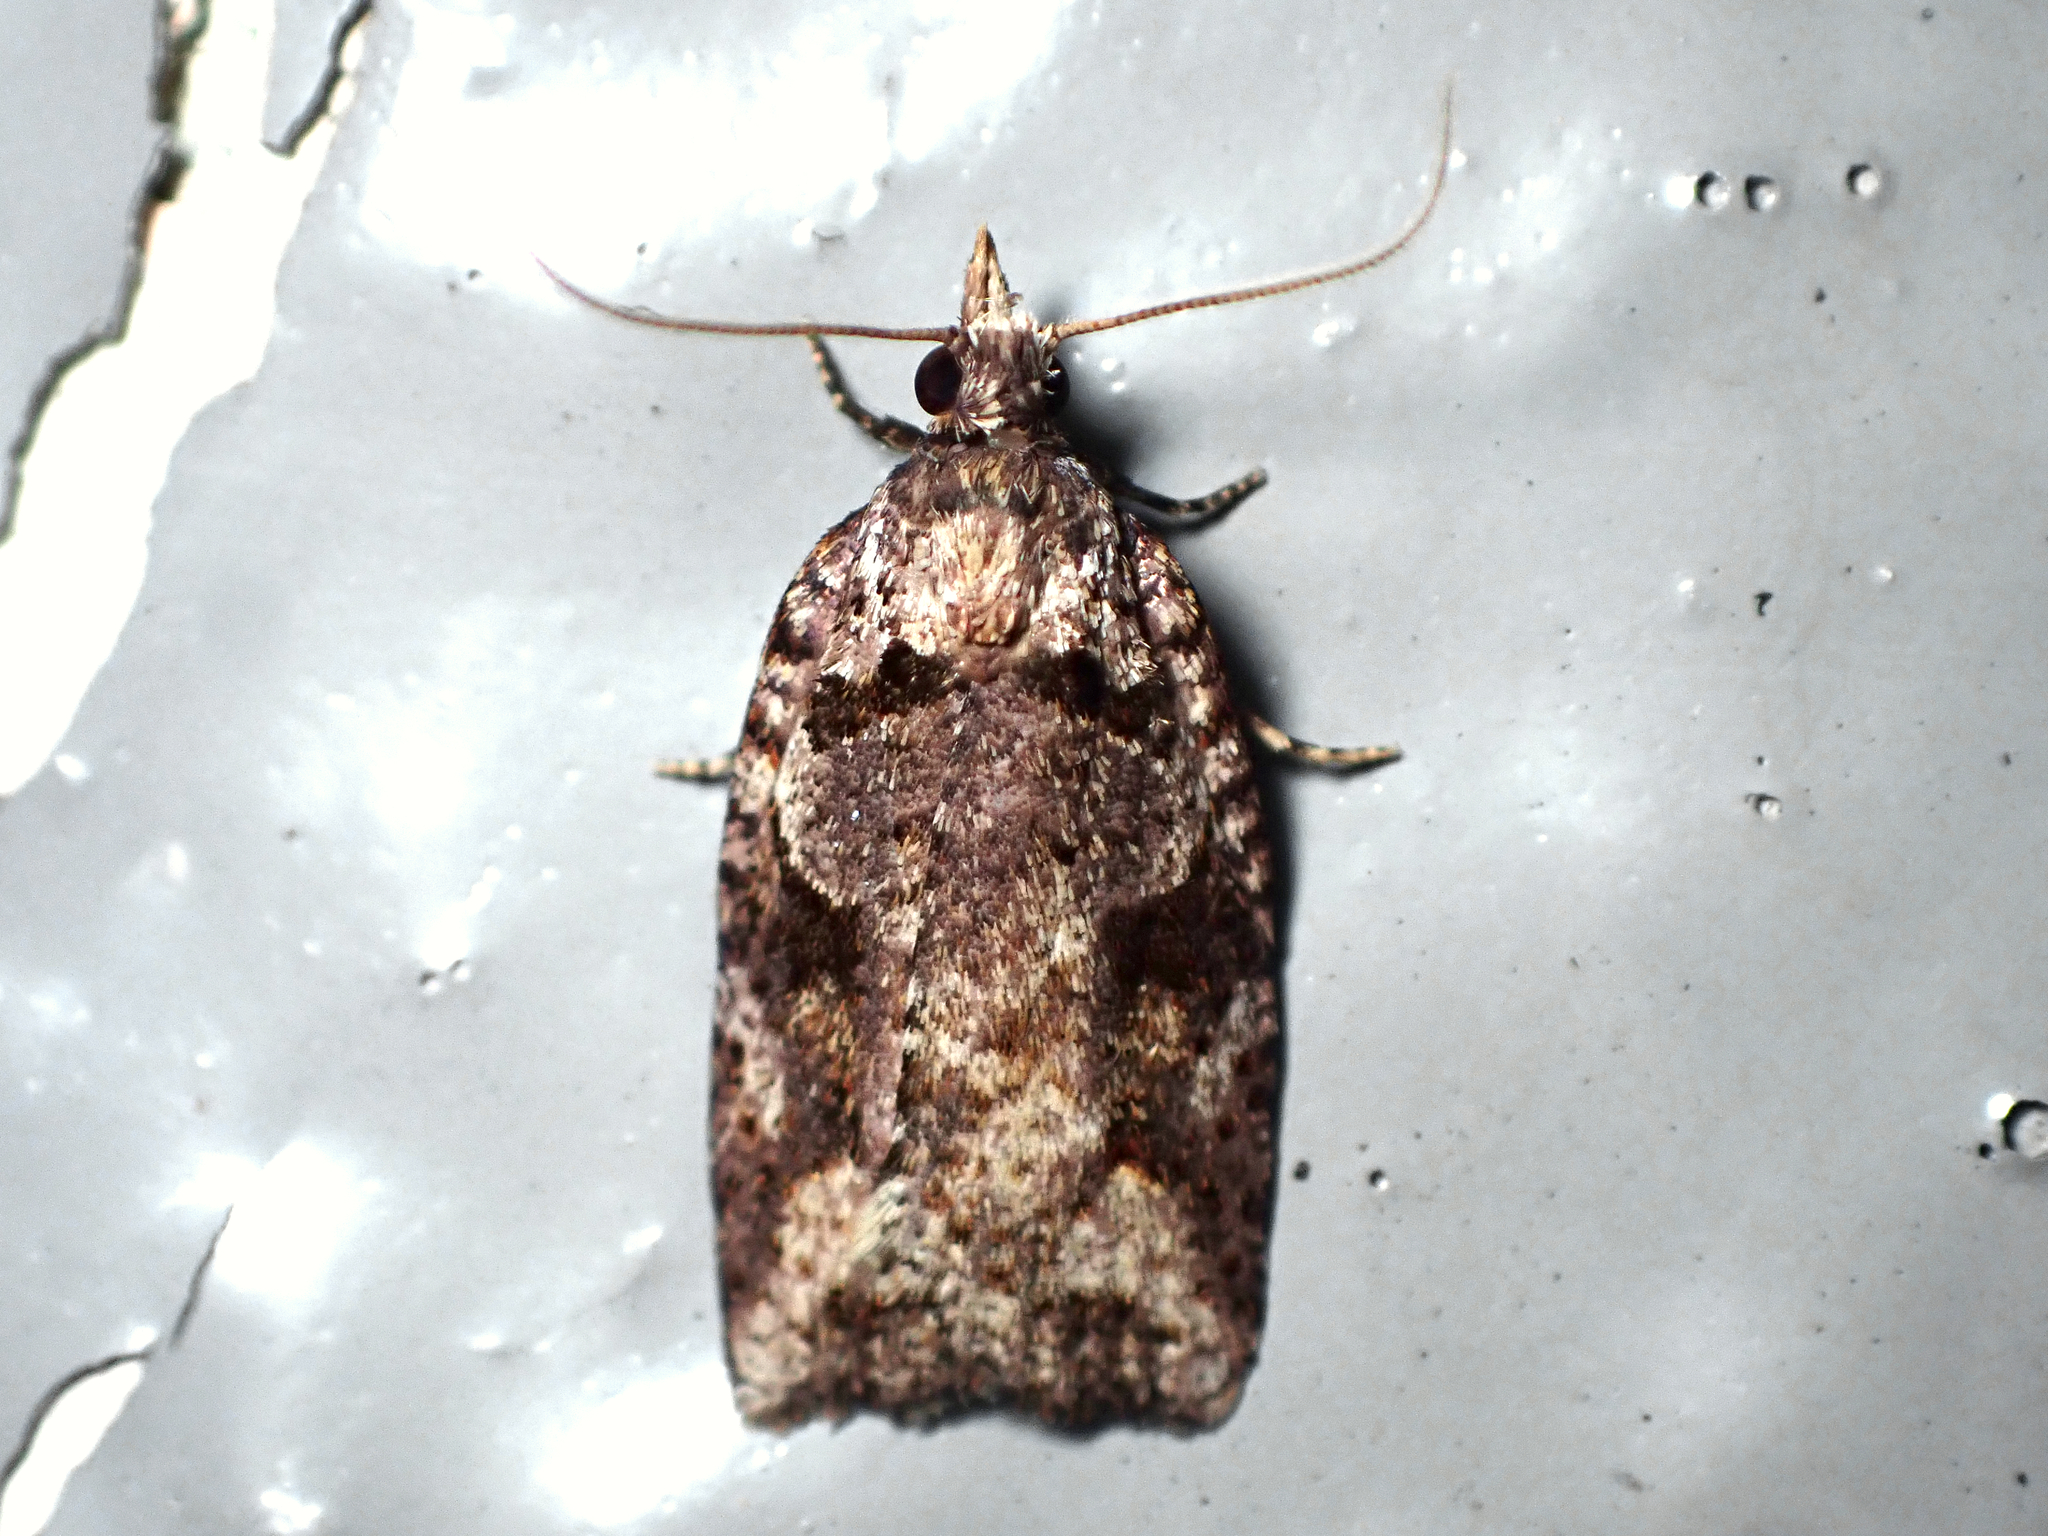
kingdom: Animalia
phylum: Arthropoda
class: Insecta
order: Lepidoptera
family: Tortricidae
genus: Ctenopseustis
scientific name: Ctenopseustis obliquana
